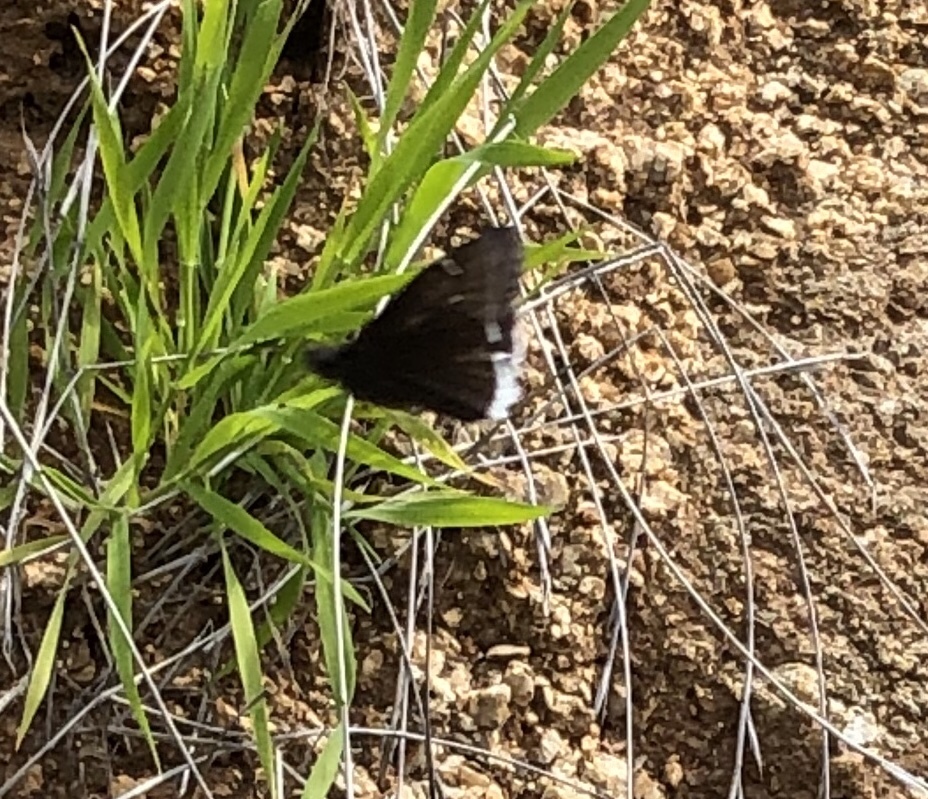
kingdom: Animalia
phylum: Arthropoda
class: Insecta
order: Lepidoptera
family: Hesperiidae
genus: Erynnis
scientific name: Erynnis funeralis
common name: Funereal duskywing
